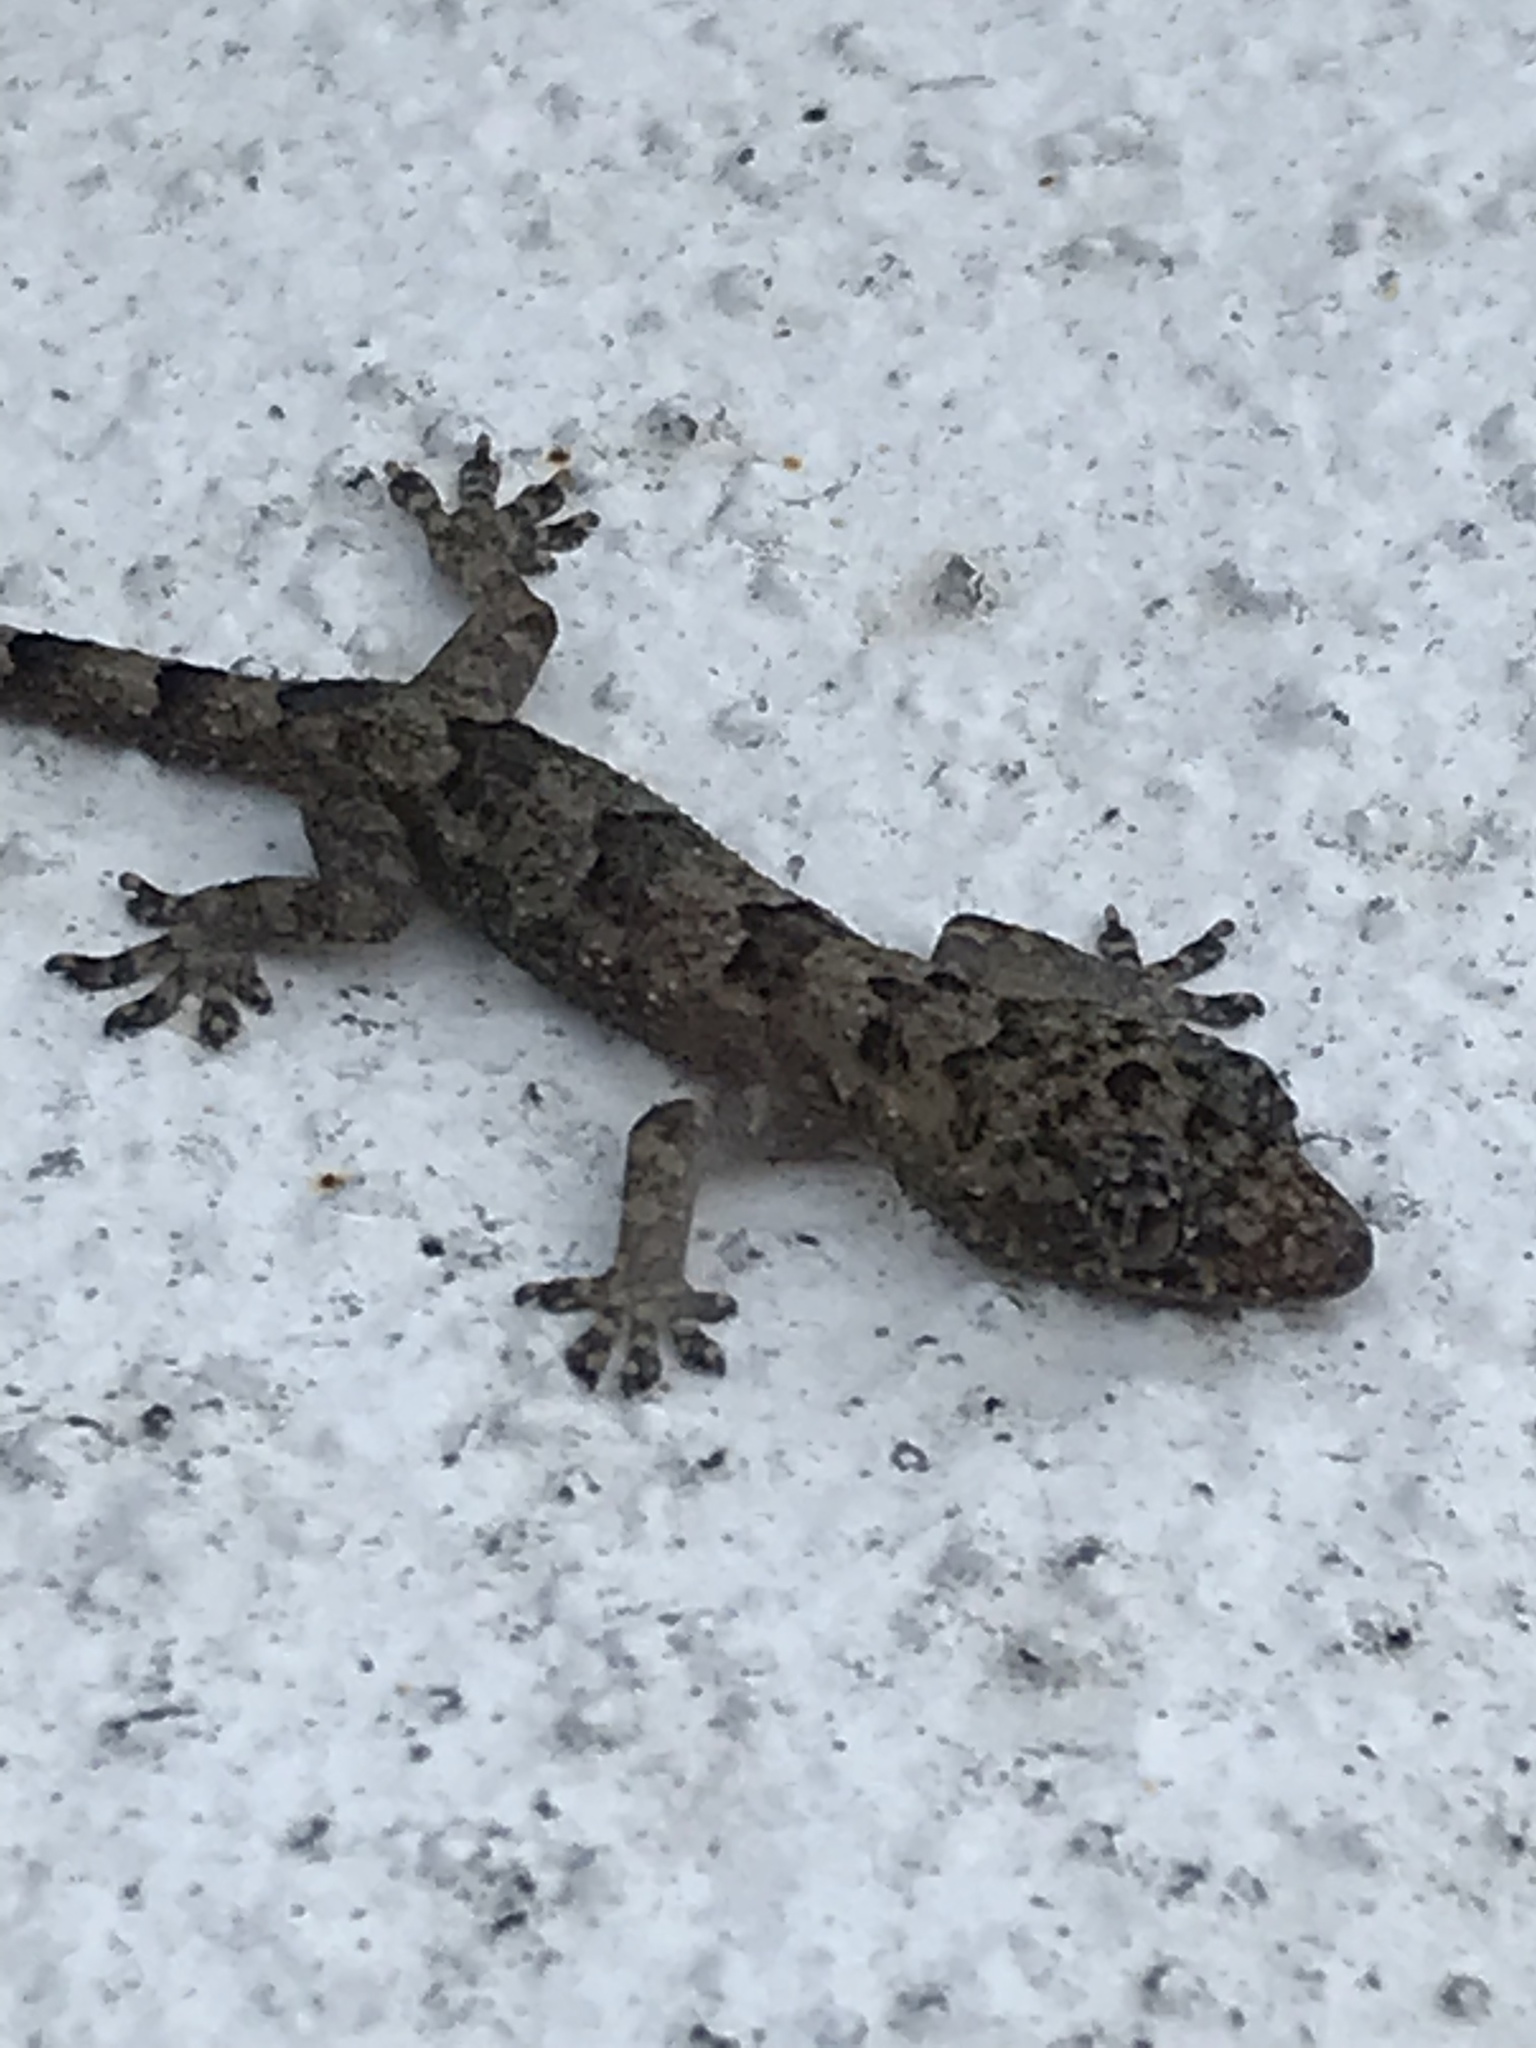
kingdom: Animalia
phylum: Chordata
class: Squamata
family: Gekkonidae
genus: Hemidactylus
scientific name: Hemidactylus mabouia
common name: House gecko
